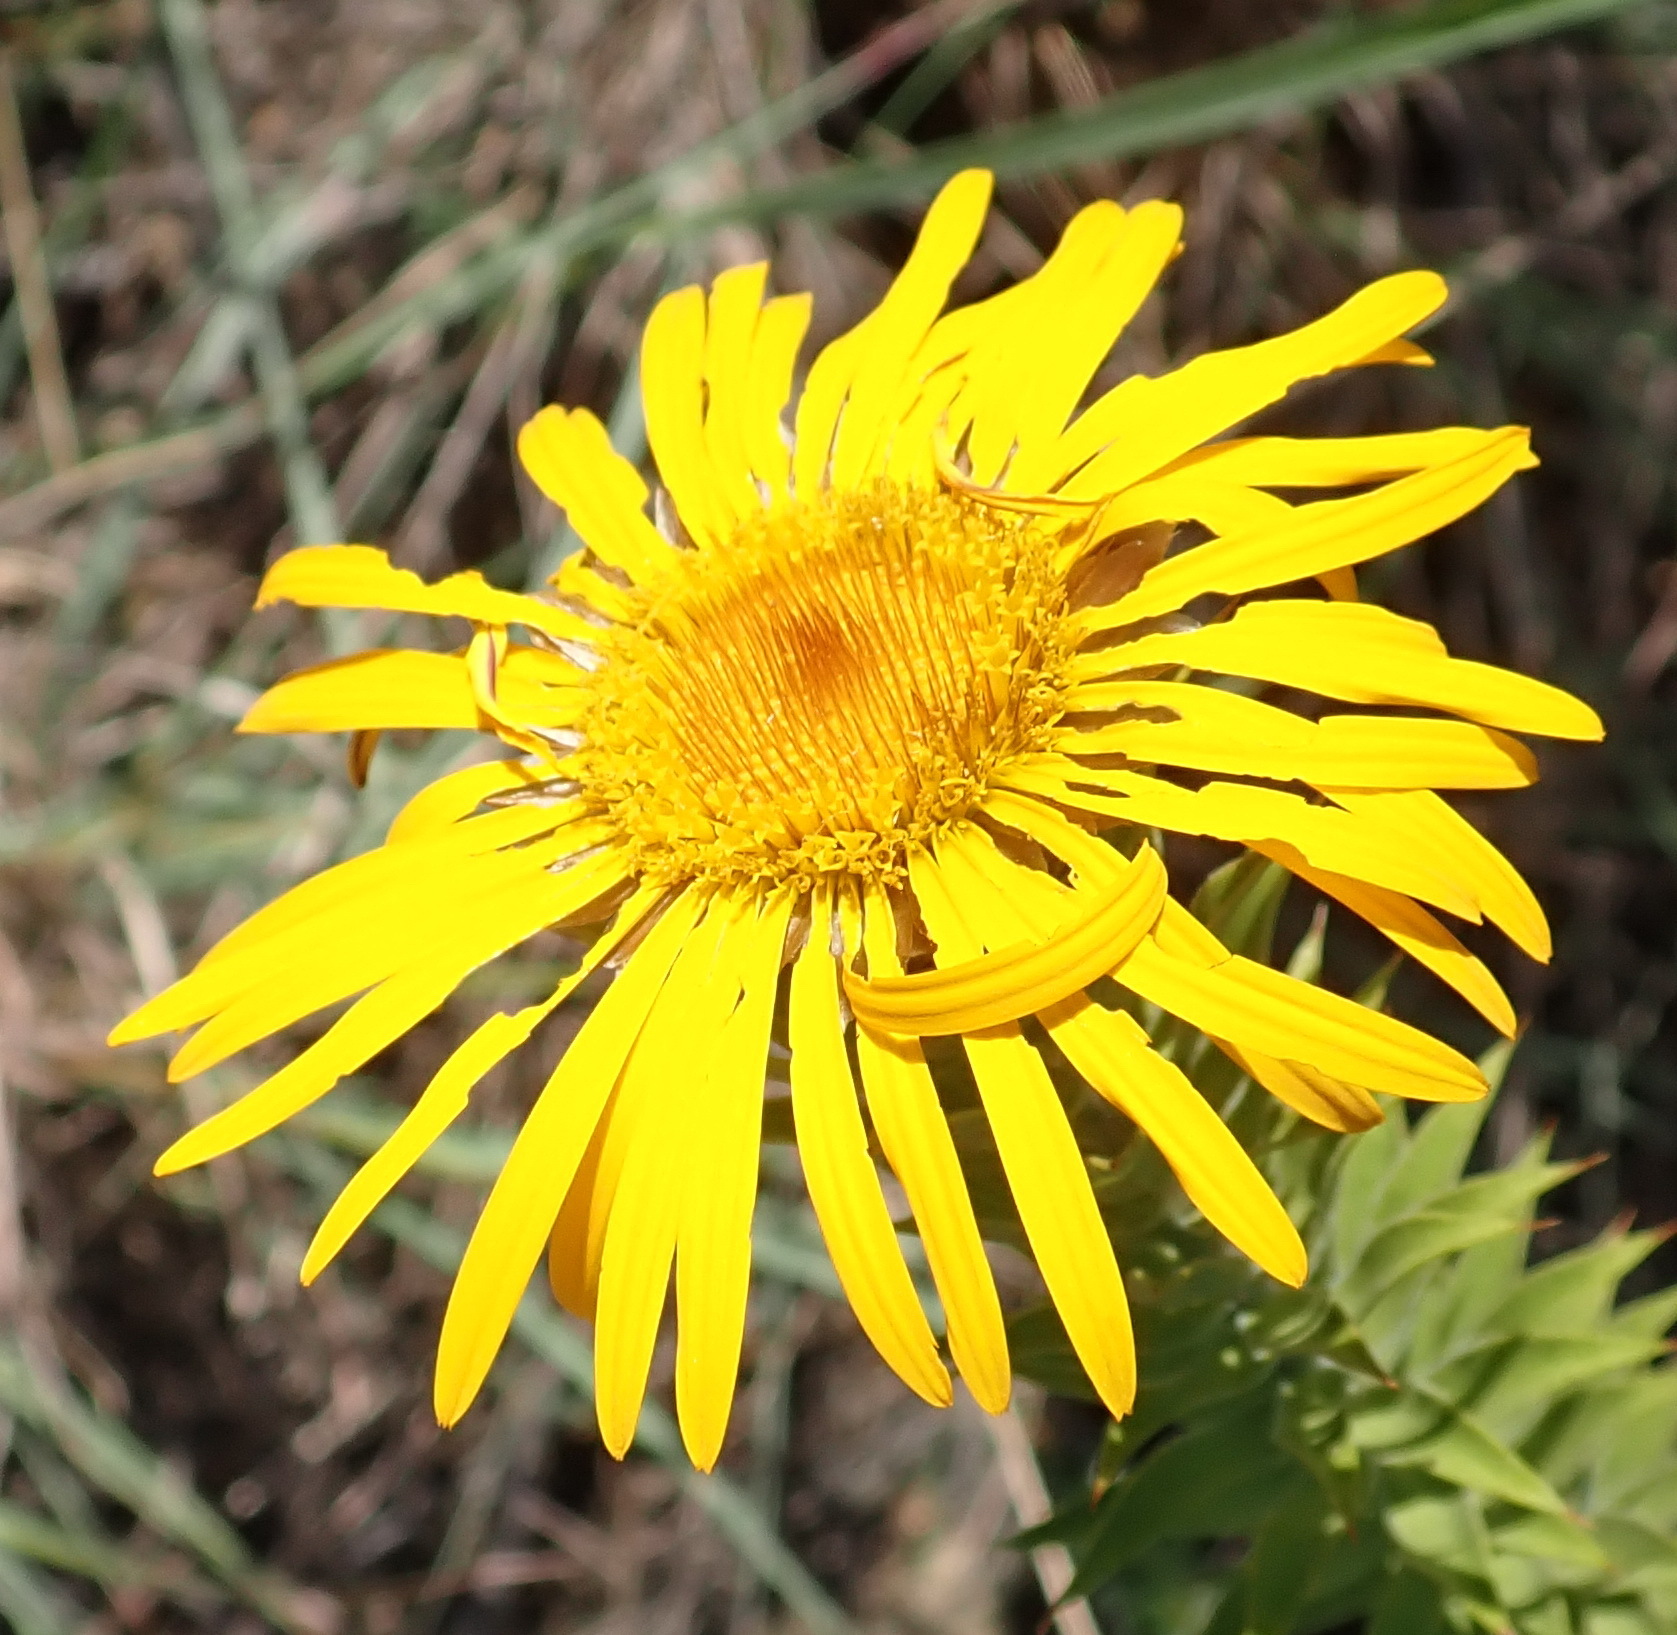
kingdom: Plantae
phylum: Tracheophyta
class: Magnoliopsida
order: Asterales
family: Asteraceae
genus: Oedera
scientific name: Oedera speciosa
